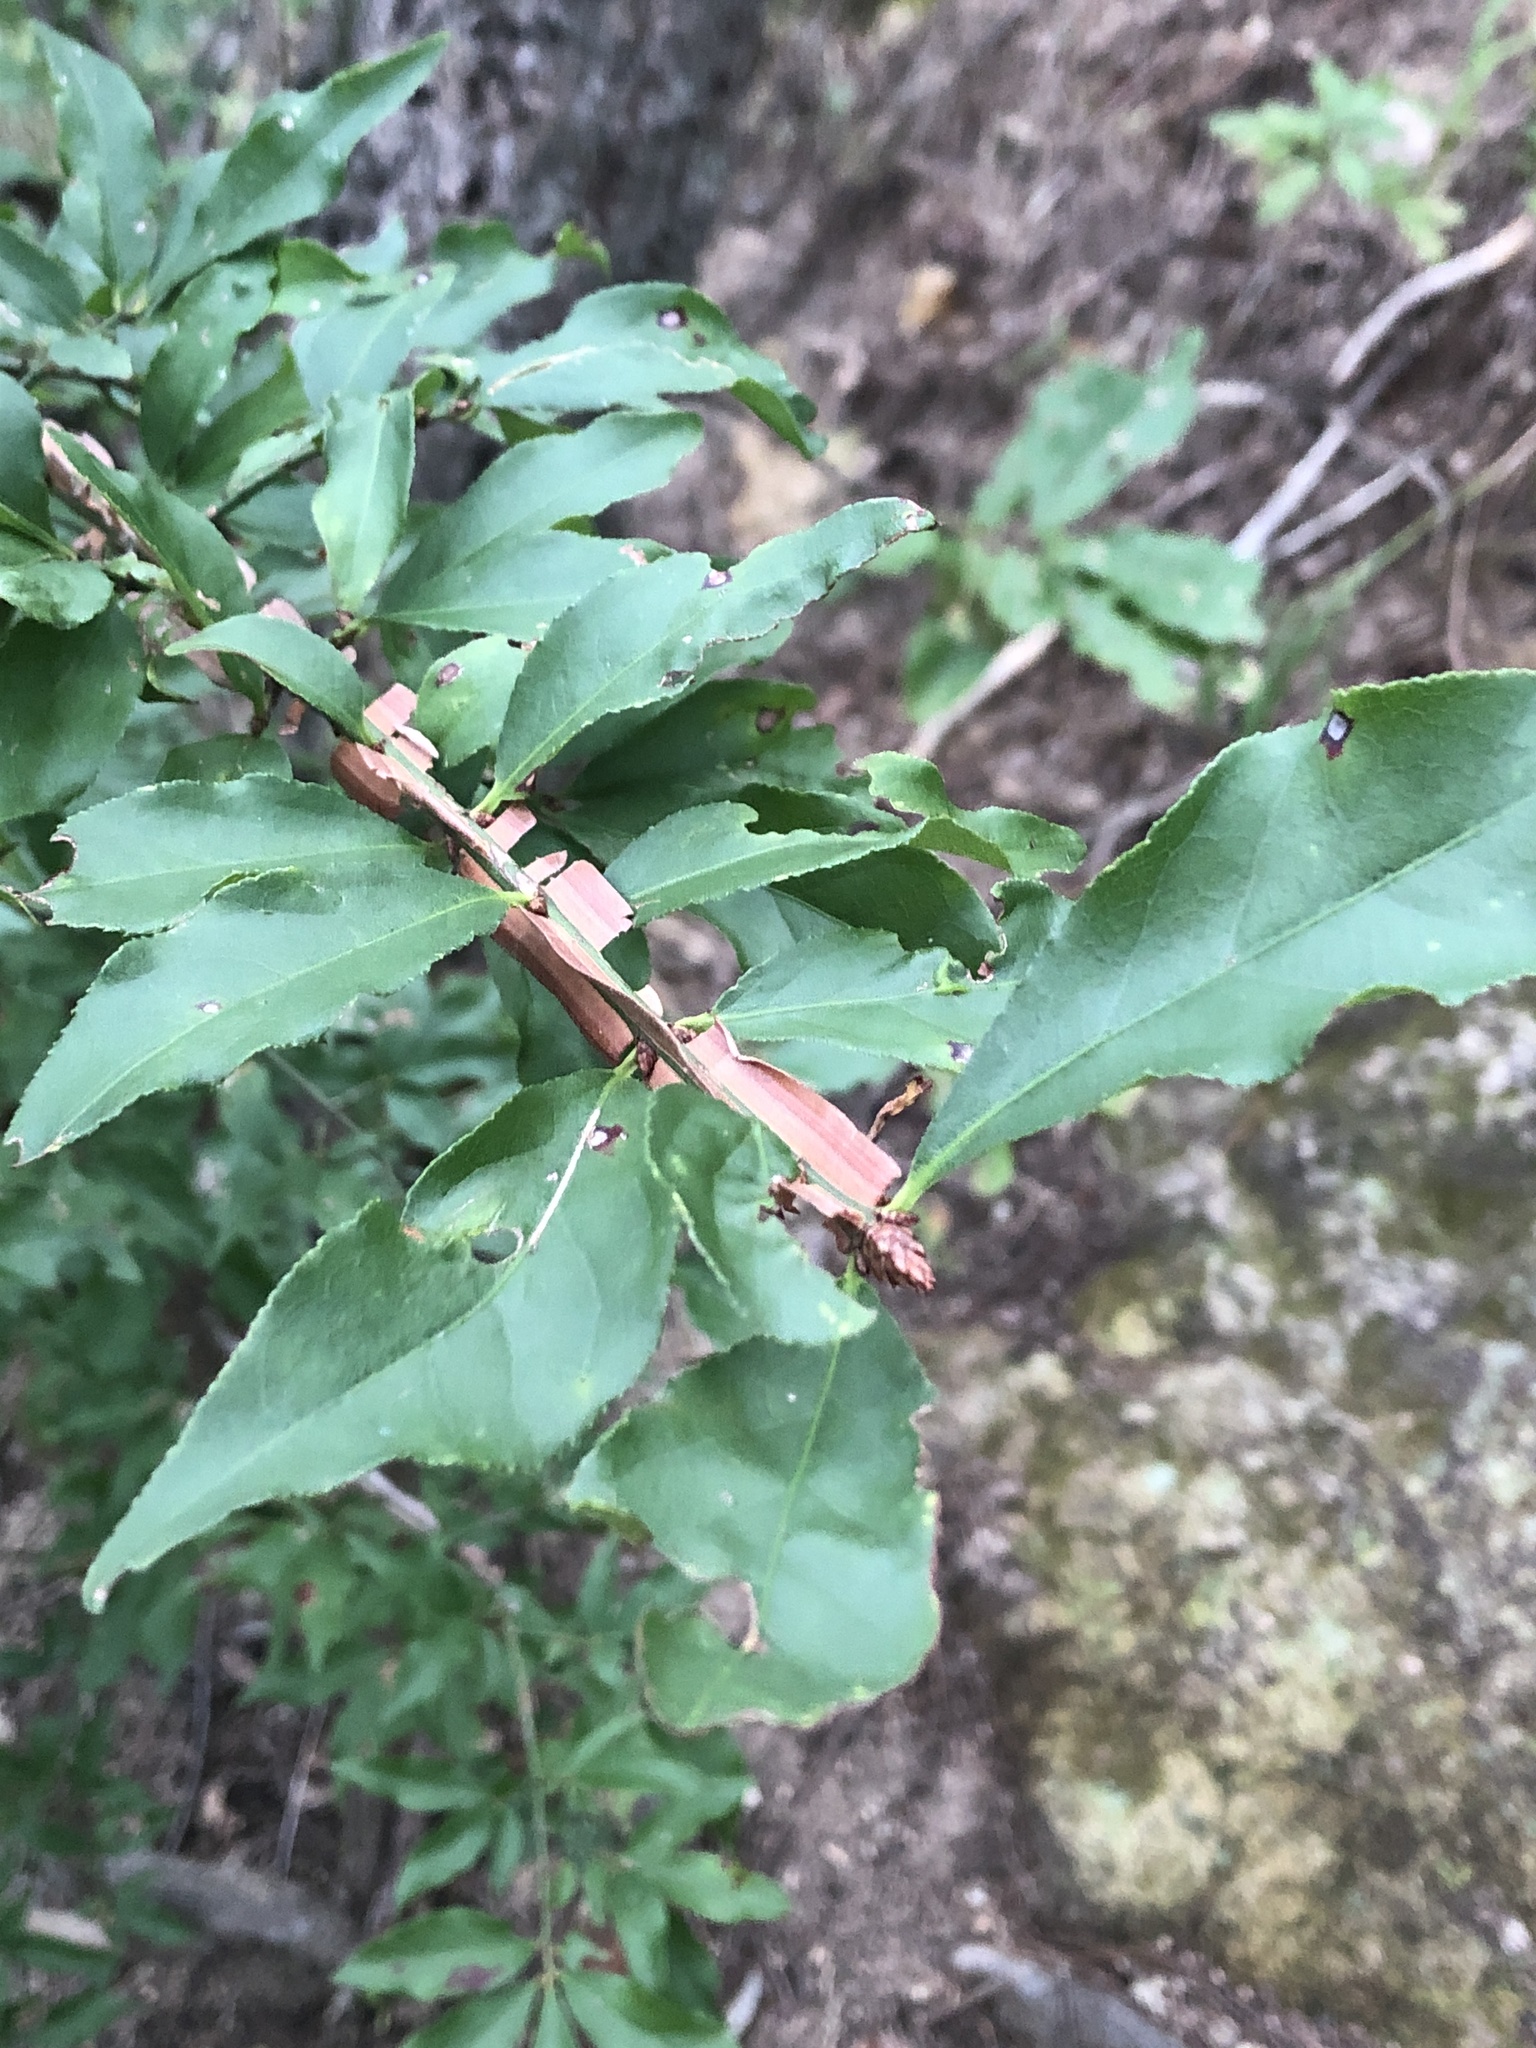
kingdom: Plantae
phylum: Tracheophyta
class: Magnoliopsida
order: Celastrales
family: Celastraceae
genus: Euonymus
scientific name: Euonymus alatus
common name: Winged euonymus
